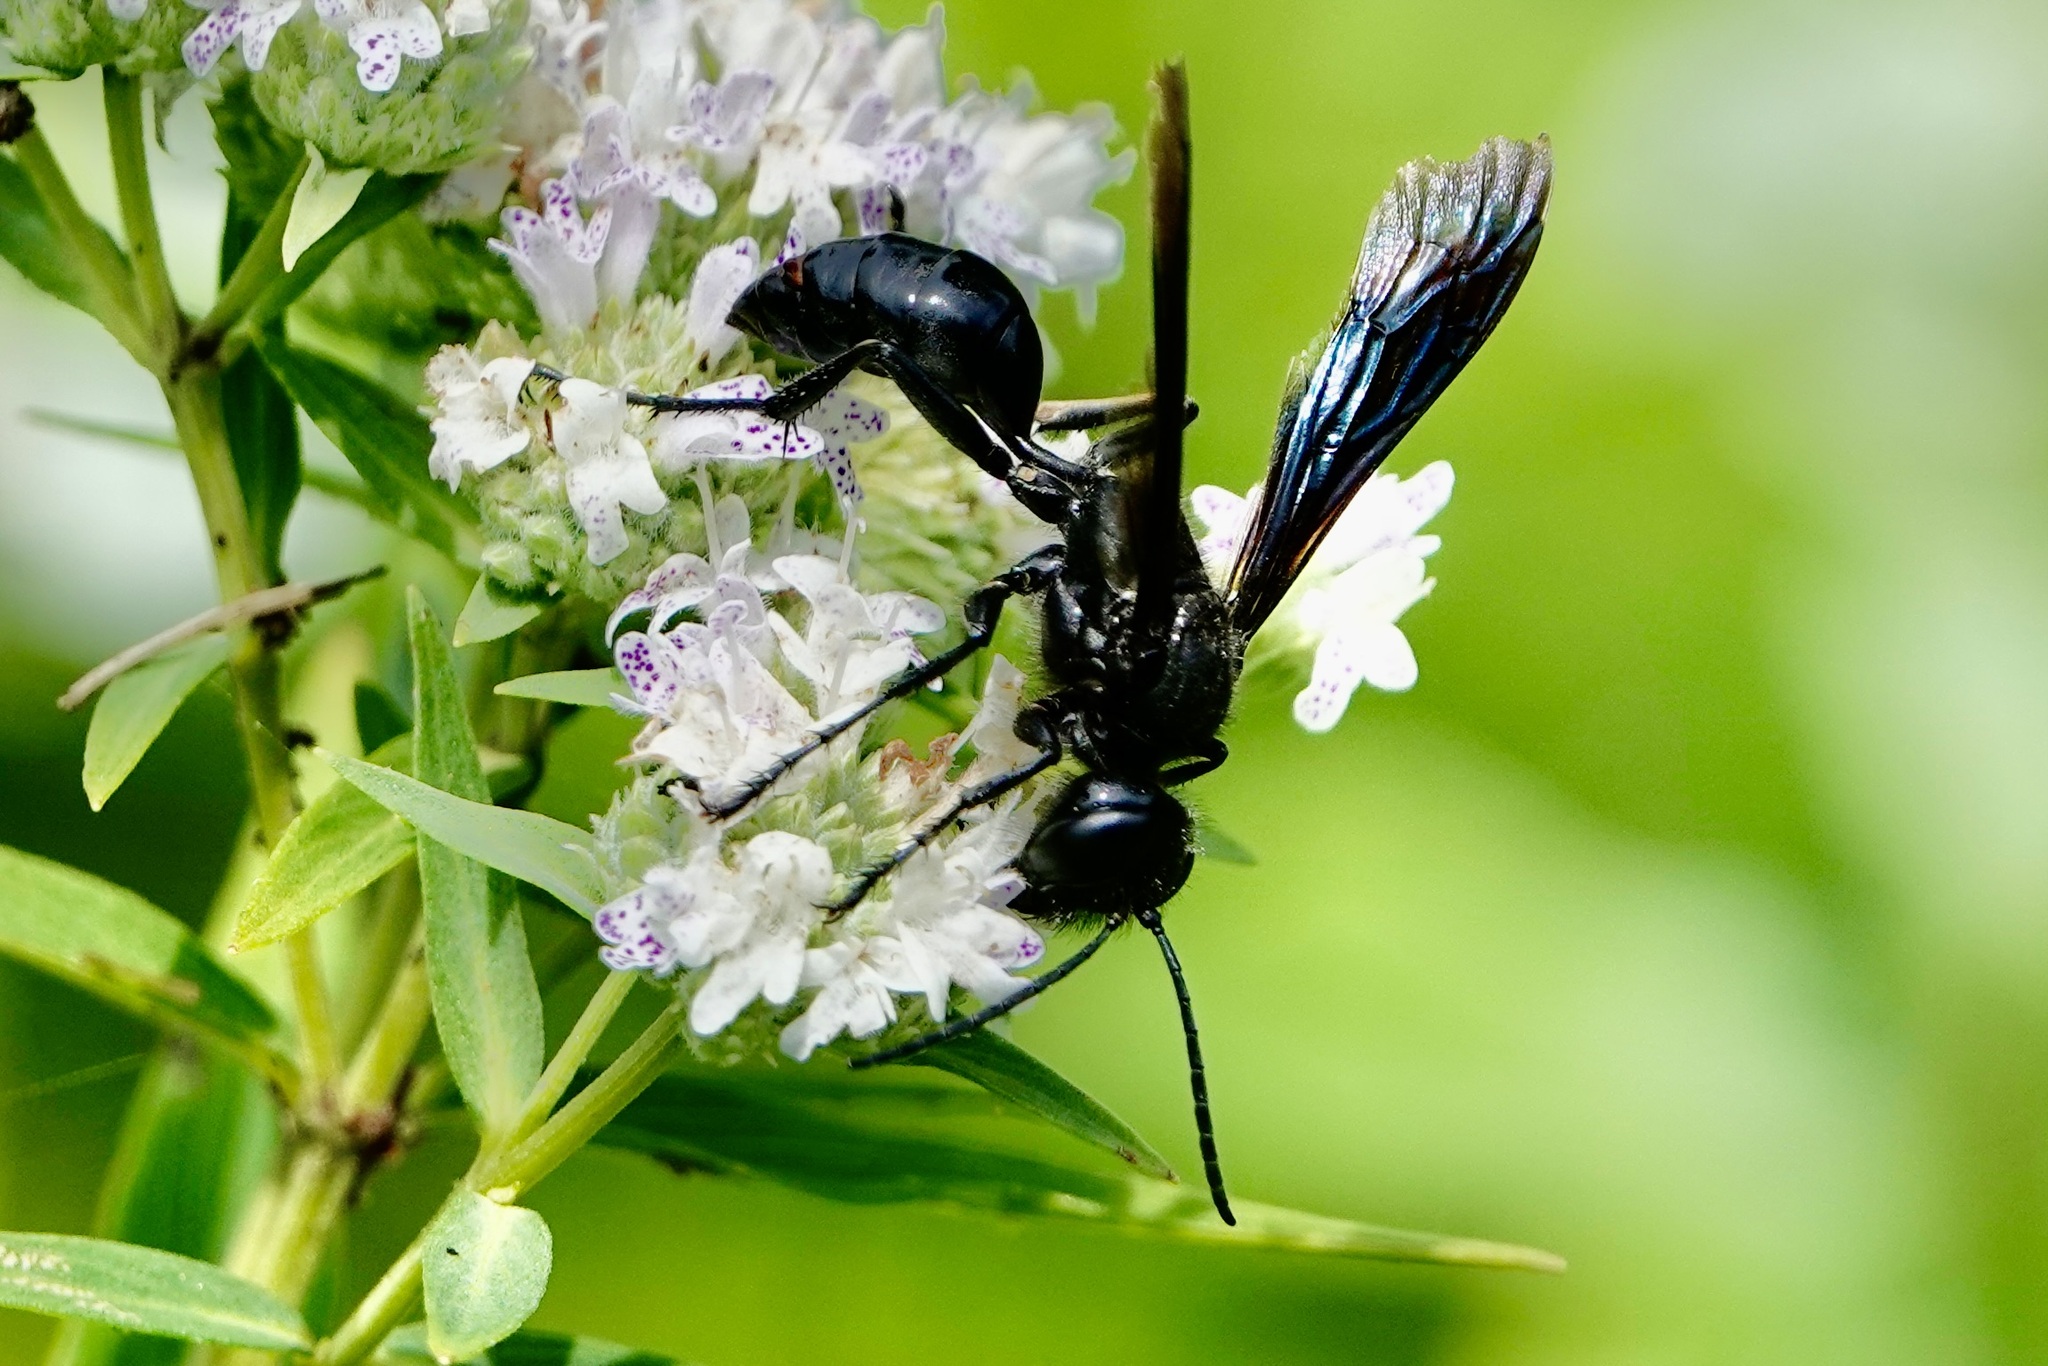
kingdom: Animalia
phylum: Arthropoda
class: Insecta
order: Hymenoptera
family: Sphecidae
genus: Isodontia
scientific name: Isodontia philadelphica
